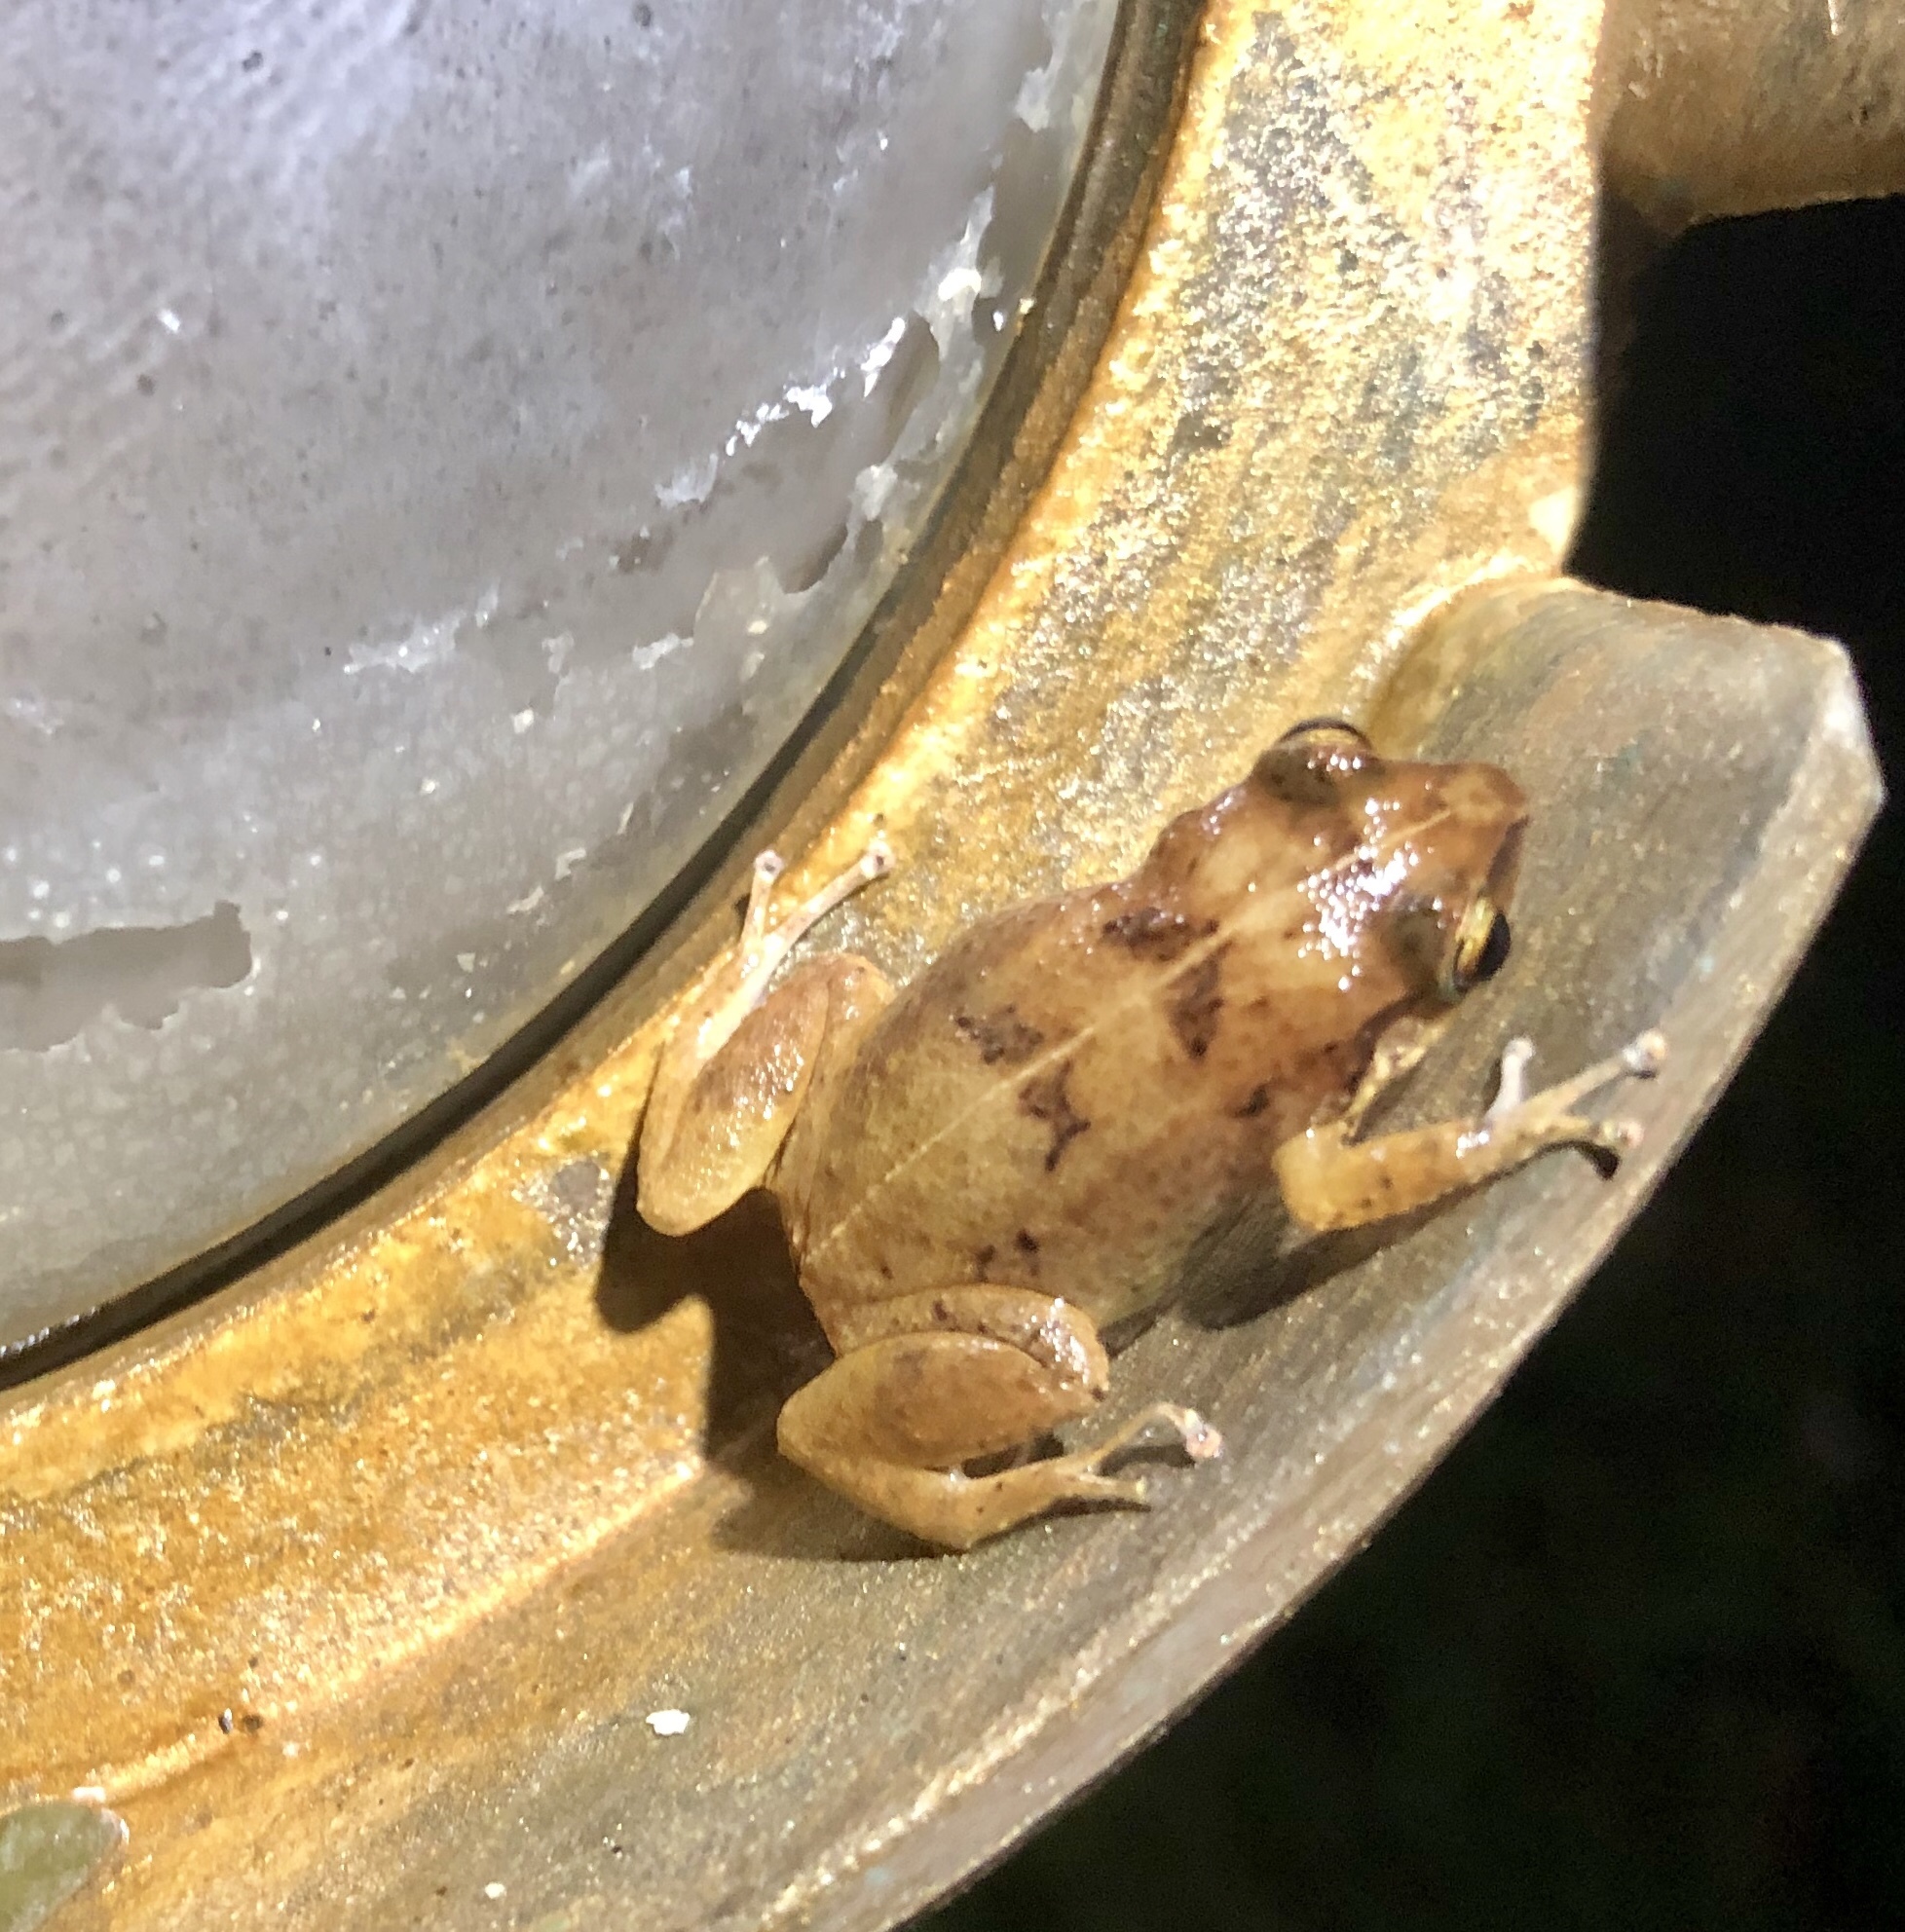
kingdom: Animalia
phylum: Chordata
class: Amphibia
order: Anura
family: Eleutherodactylidae
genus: Eleutherodactylus
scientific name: Eleutherodactylus gossei
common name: Jamaican forest frog
